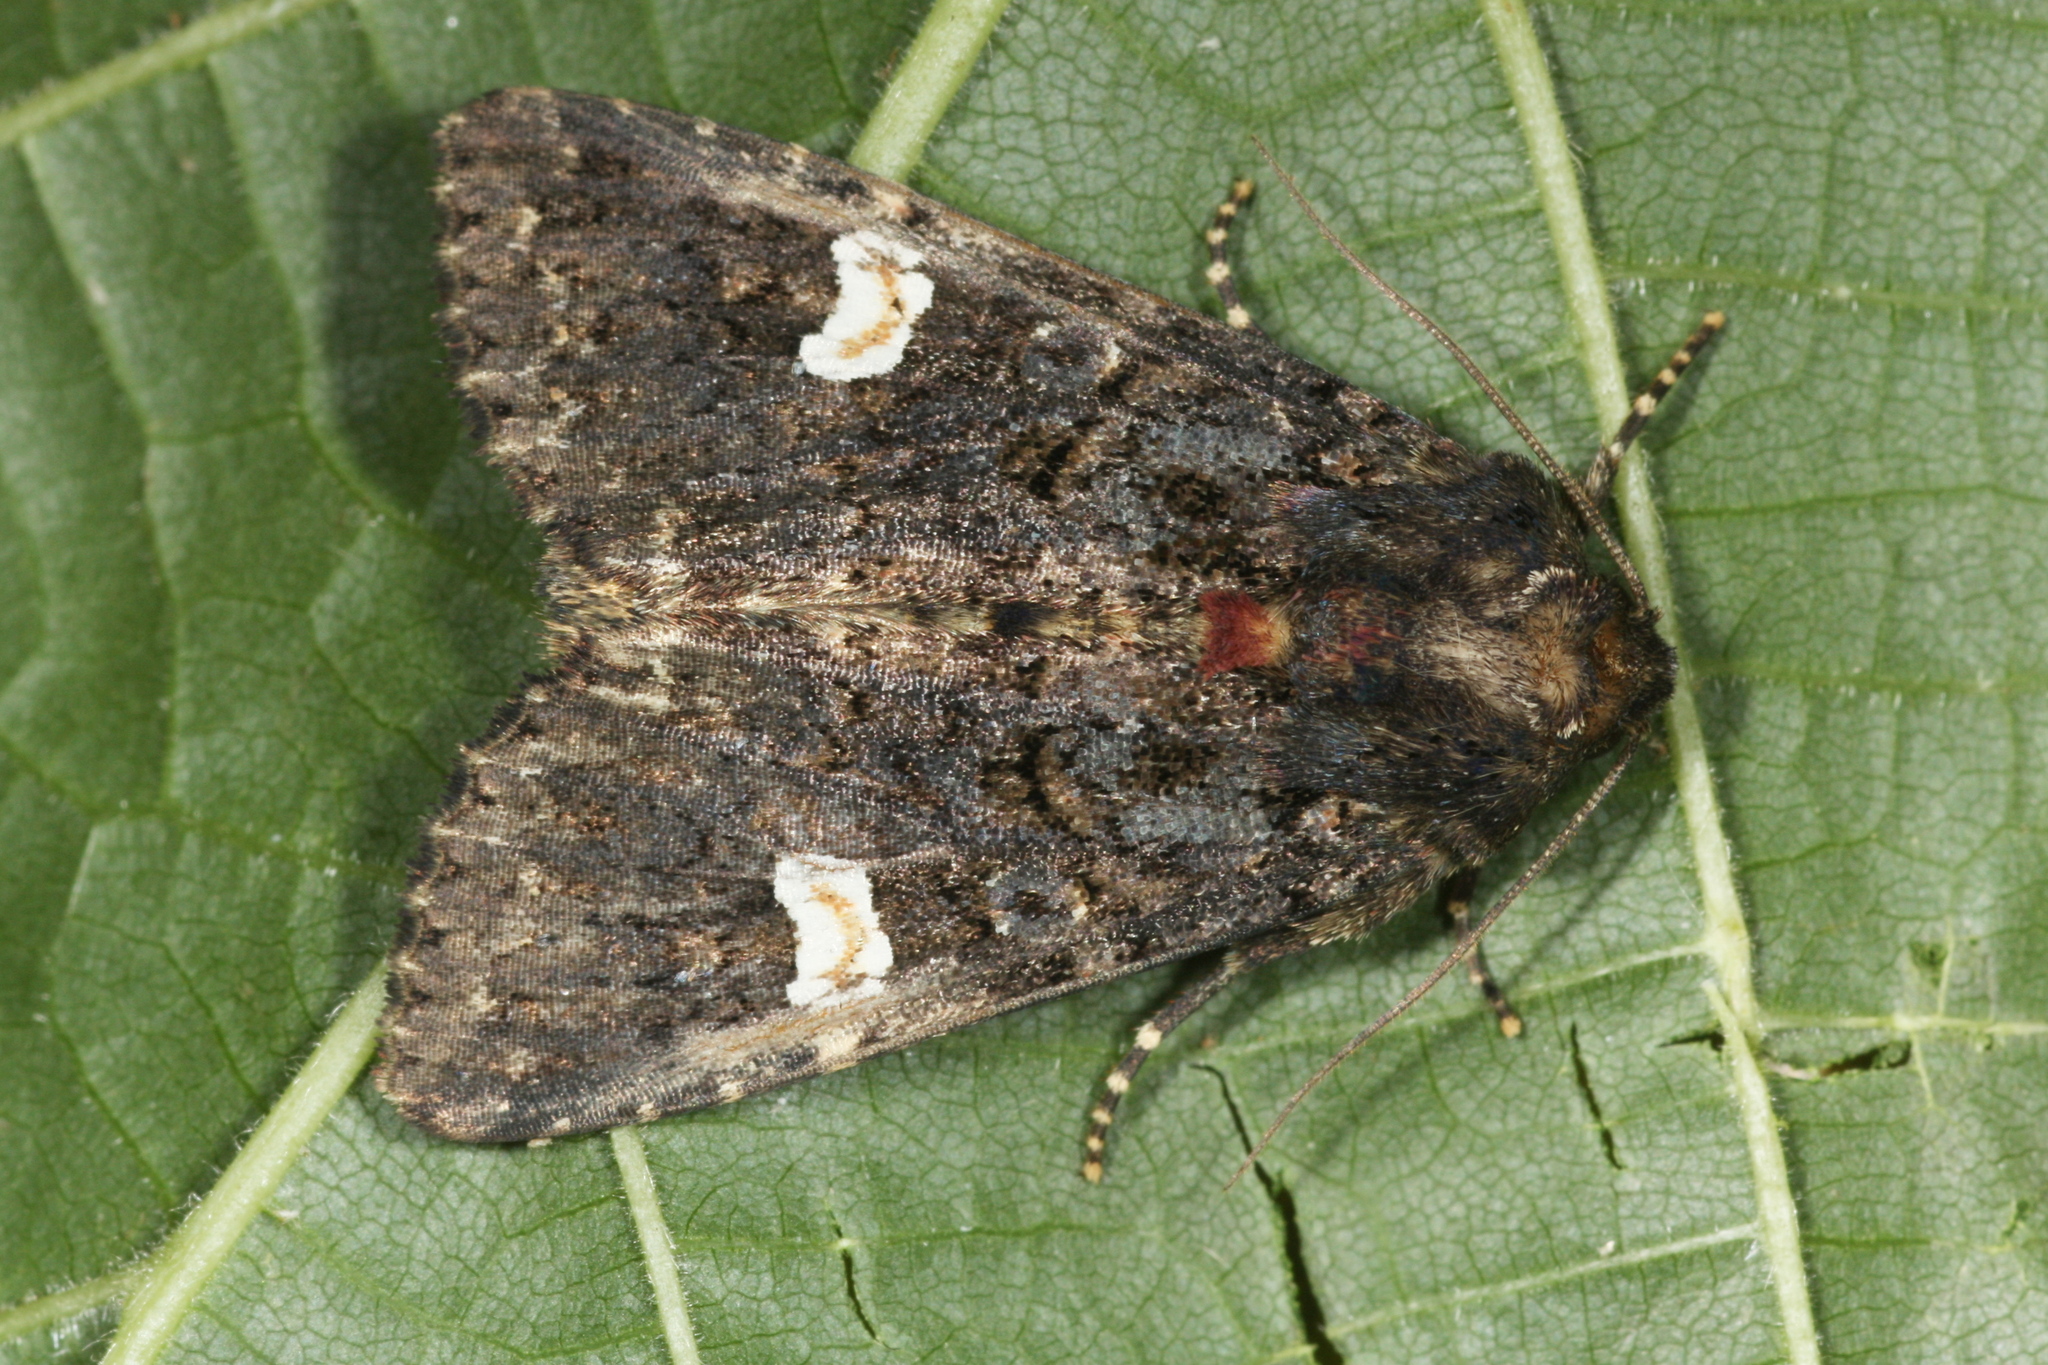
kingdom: Animalia
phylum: Arthropoda
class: Insecta
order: Lepidoptera
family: Noctuidae
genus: Melanchra
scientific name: Melanchra persicariae
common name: Dot moth
